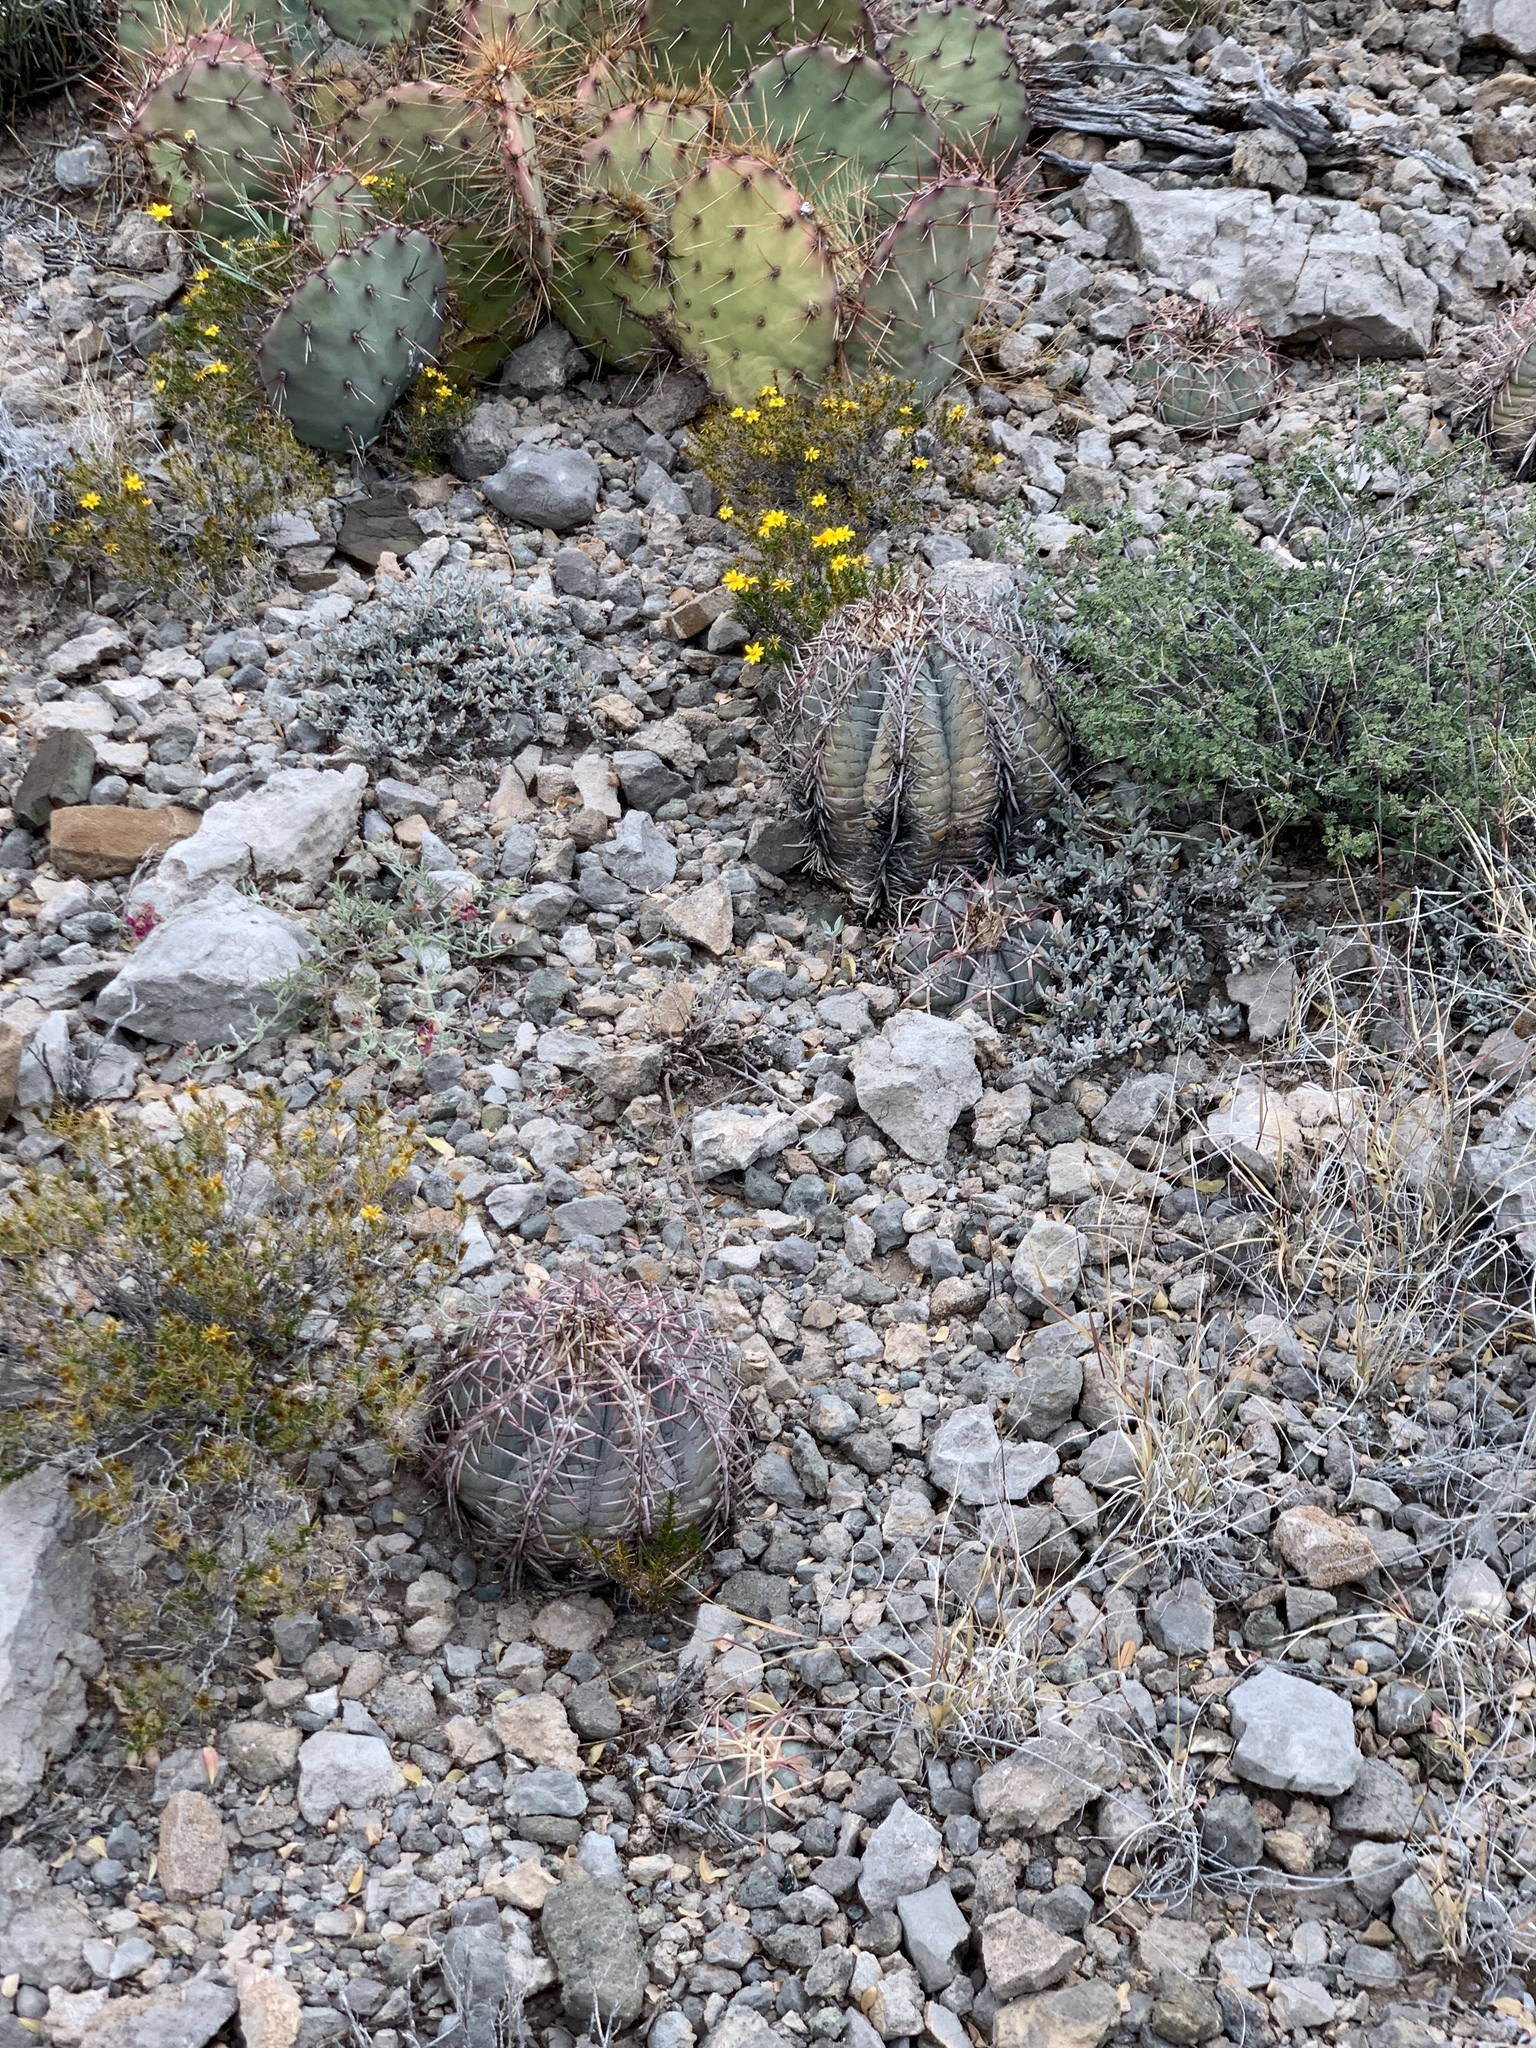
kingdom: Plantae
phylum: Tracheophyta
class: Magnoliopsida
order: Caryophyllales
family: Cactaceae
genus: Echinocactus
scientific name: Echinocactus horizonthalonius
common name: Devilshead
